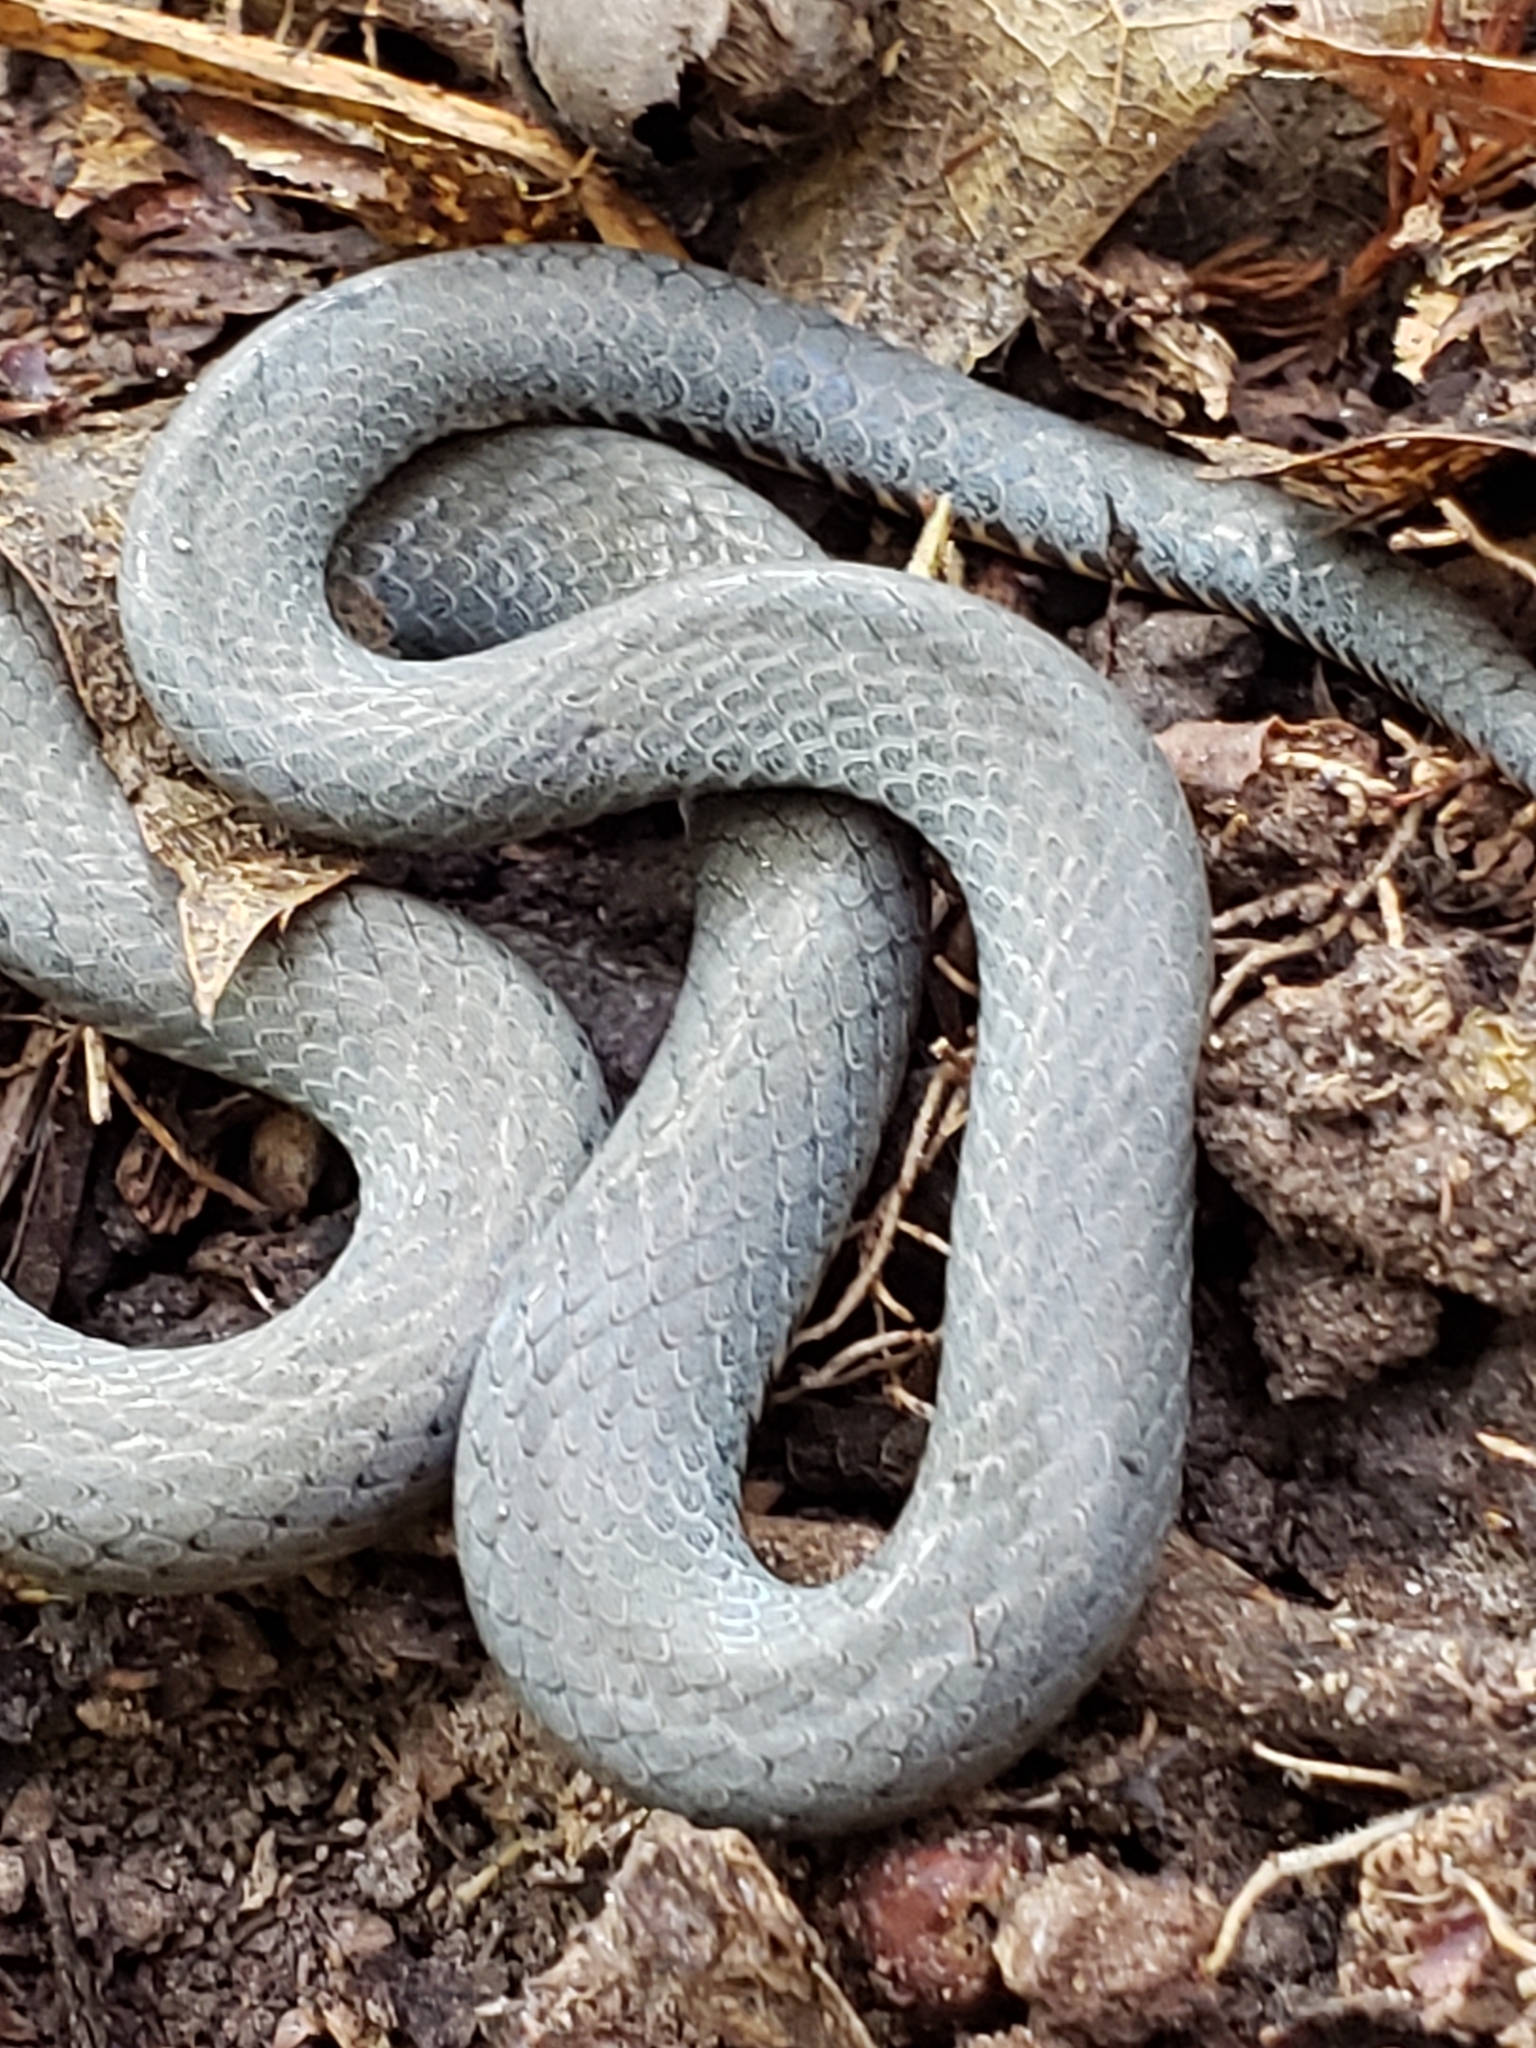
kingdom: Animalia
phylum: Chordata
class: Squamata
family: Colubridae
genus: Diadophis
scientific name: Diadophis punctatus
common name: Ringneck snake
